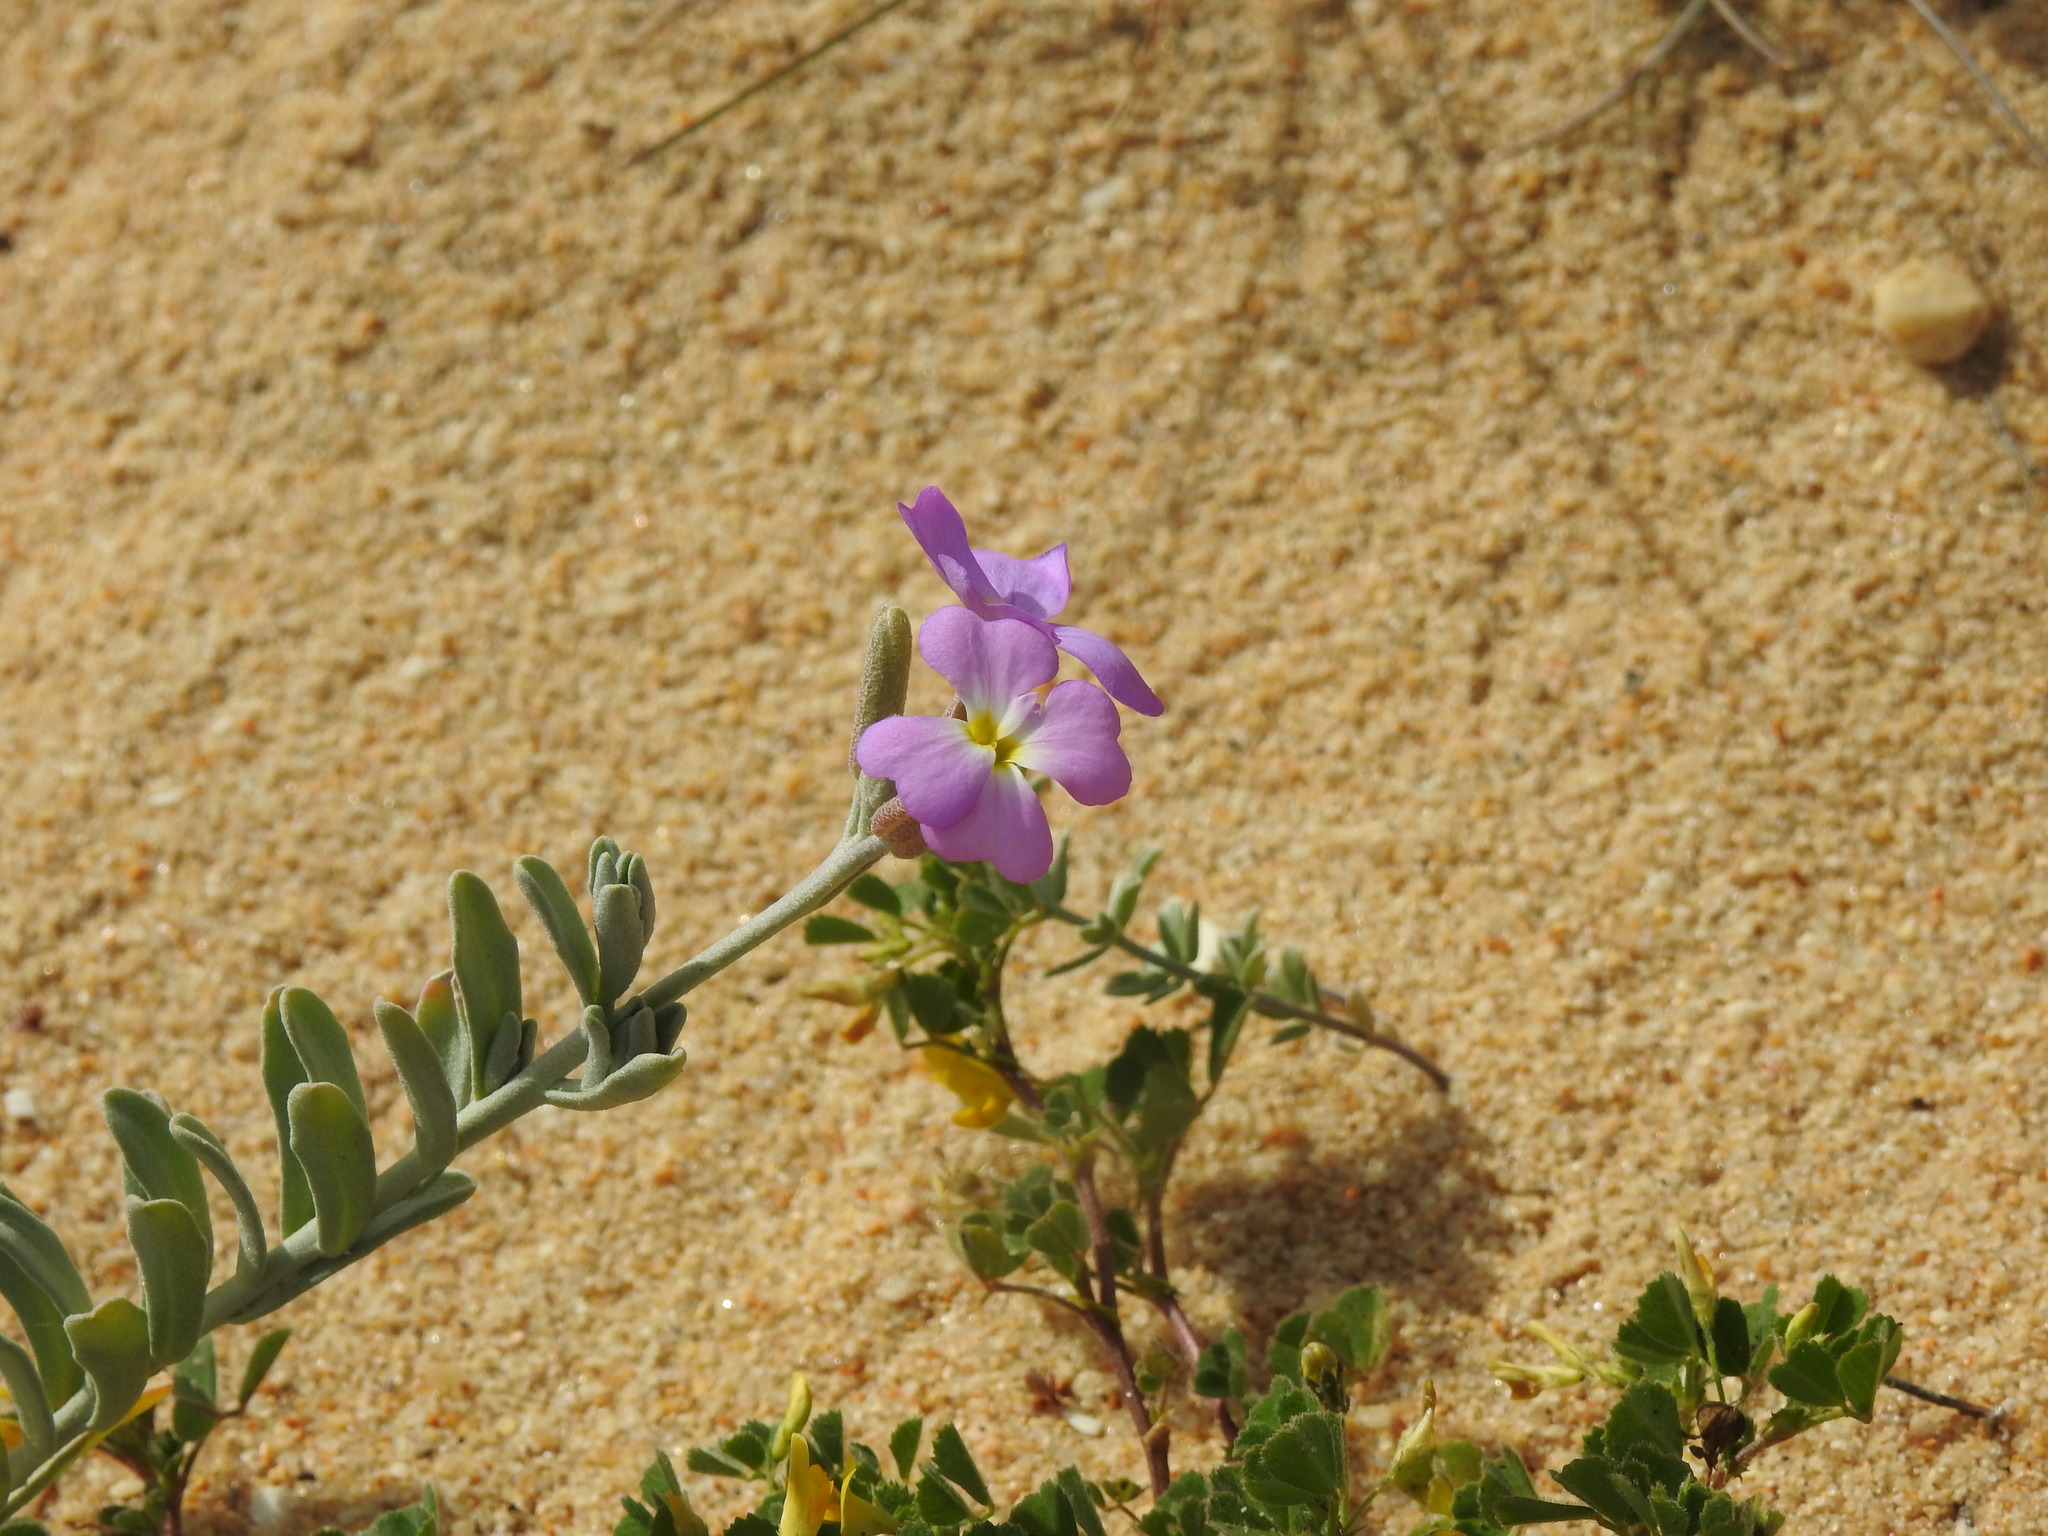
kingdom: Plantae
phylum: Tracheophyta
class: Magnoliopsida
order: Brassicales
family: Brassicaceae
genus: Marcuskochia
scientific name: Marcuskochia littorea
